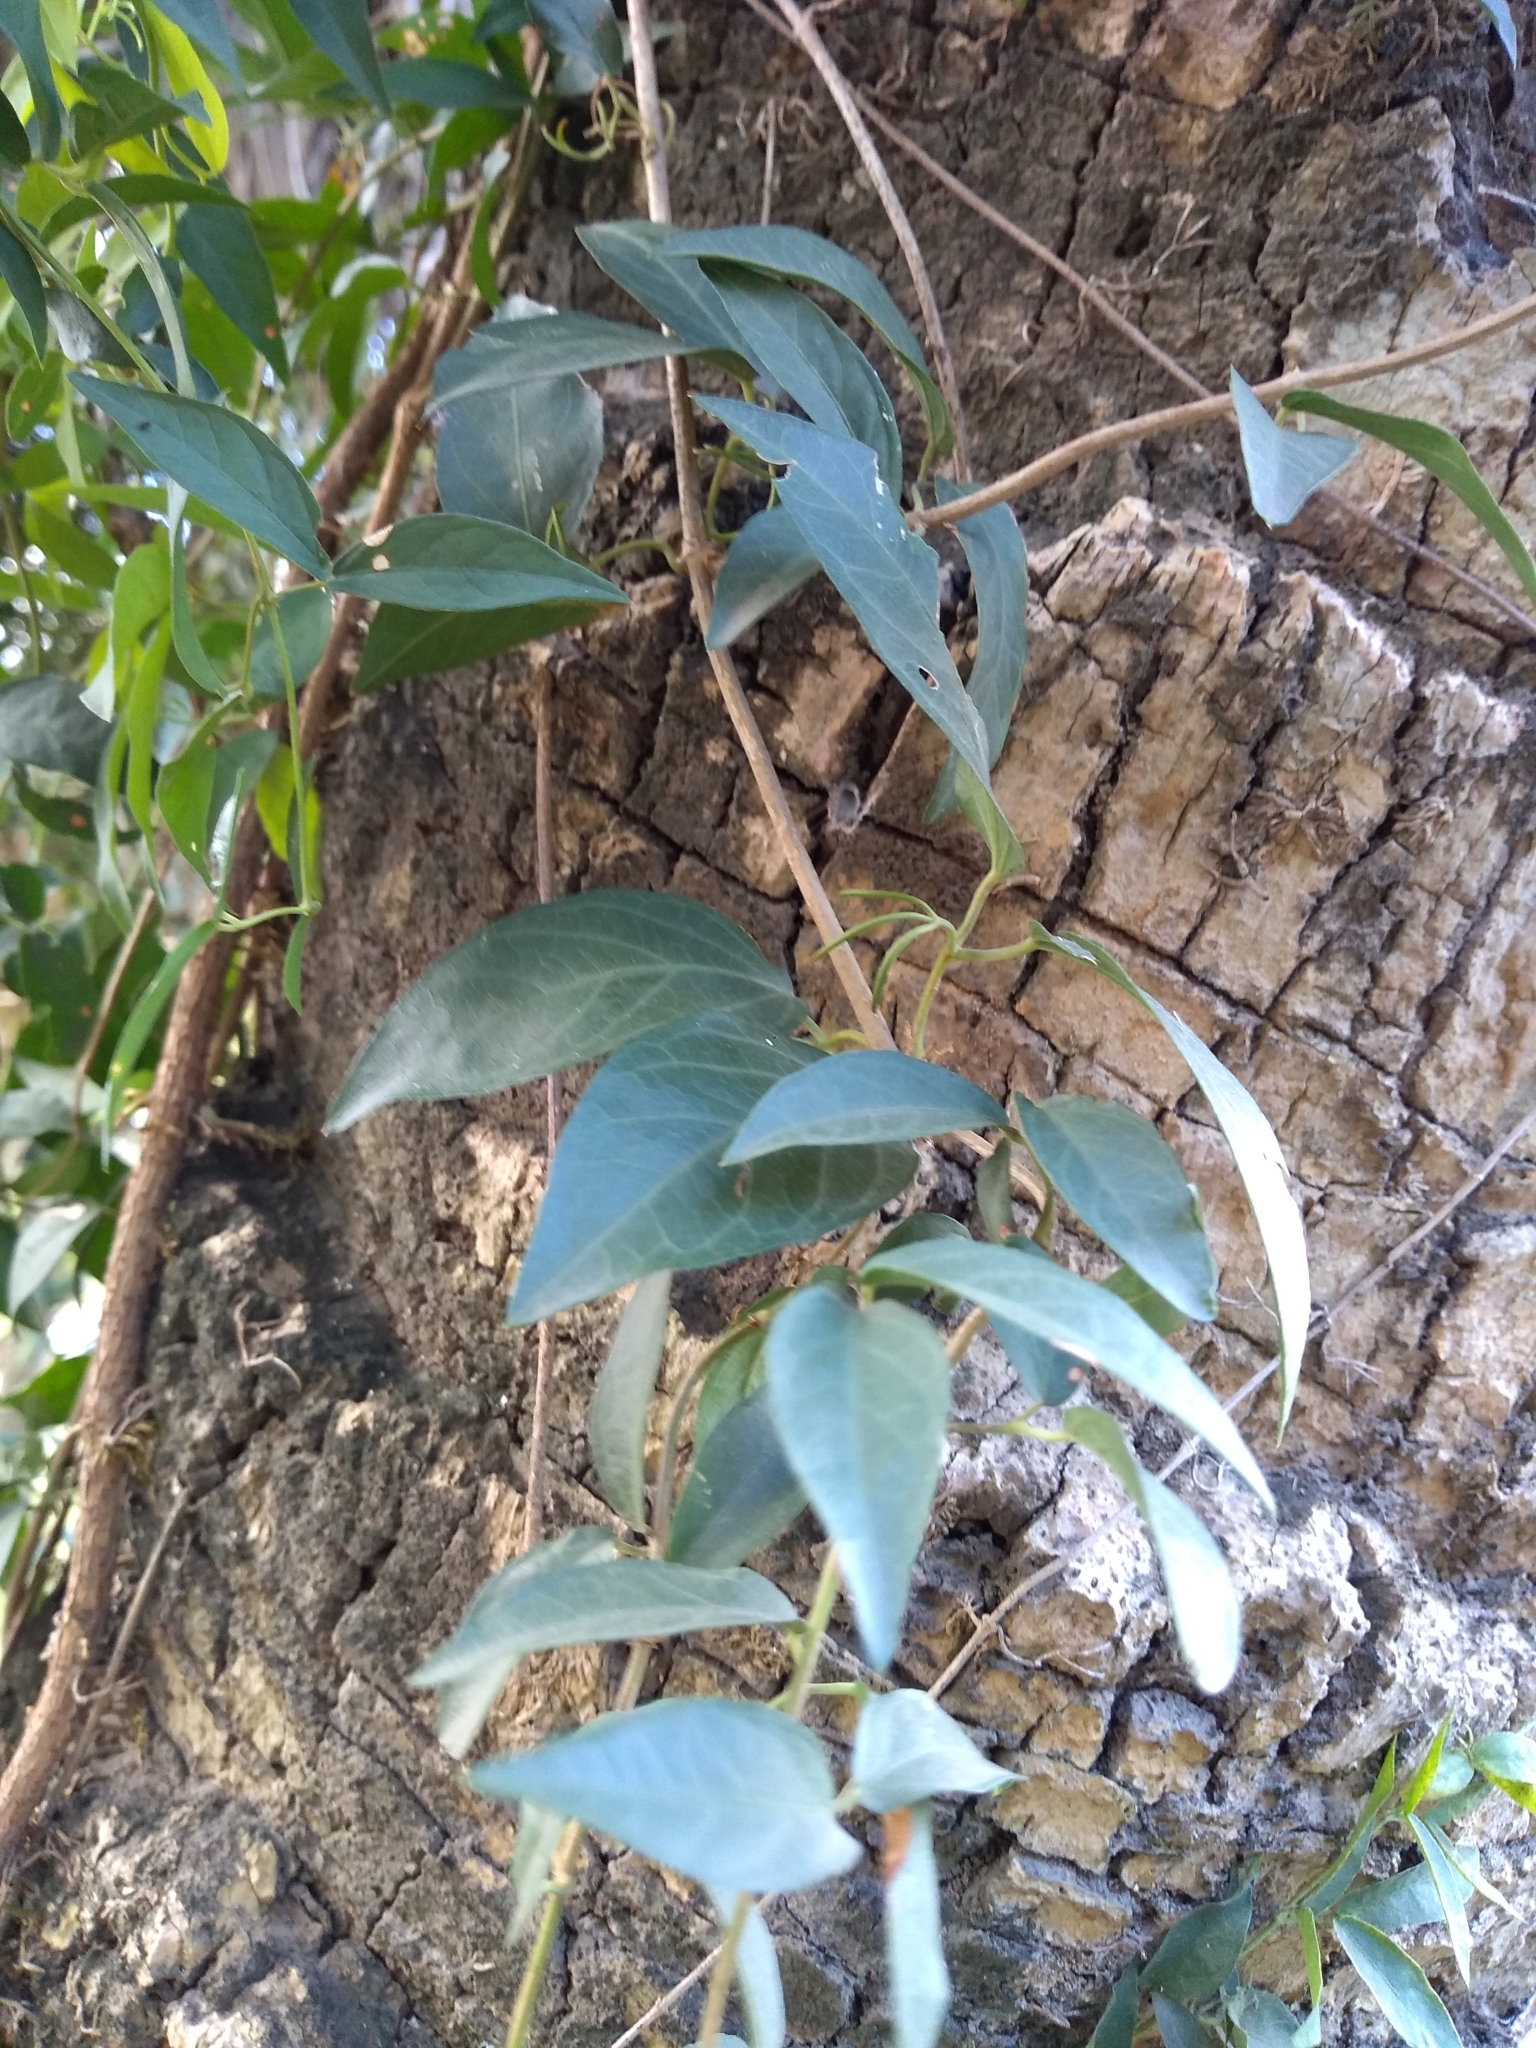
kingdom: Plantae
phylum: Tracheophyta
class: Magnoliopsida
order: Lamiales
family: Bignoniaceae
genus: Dolichandra
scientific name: Dolichandra unguis-cati
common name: Catclaw vine
